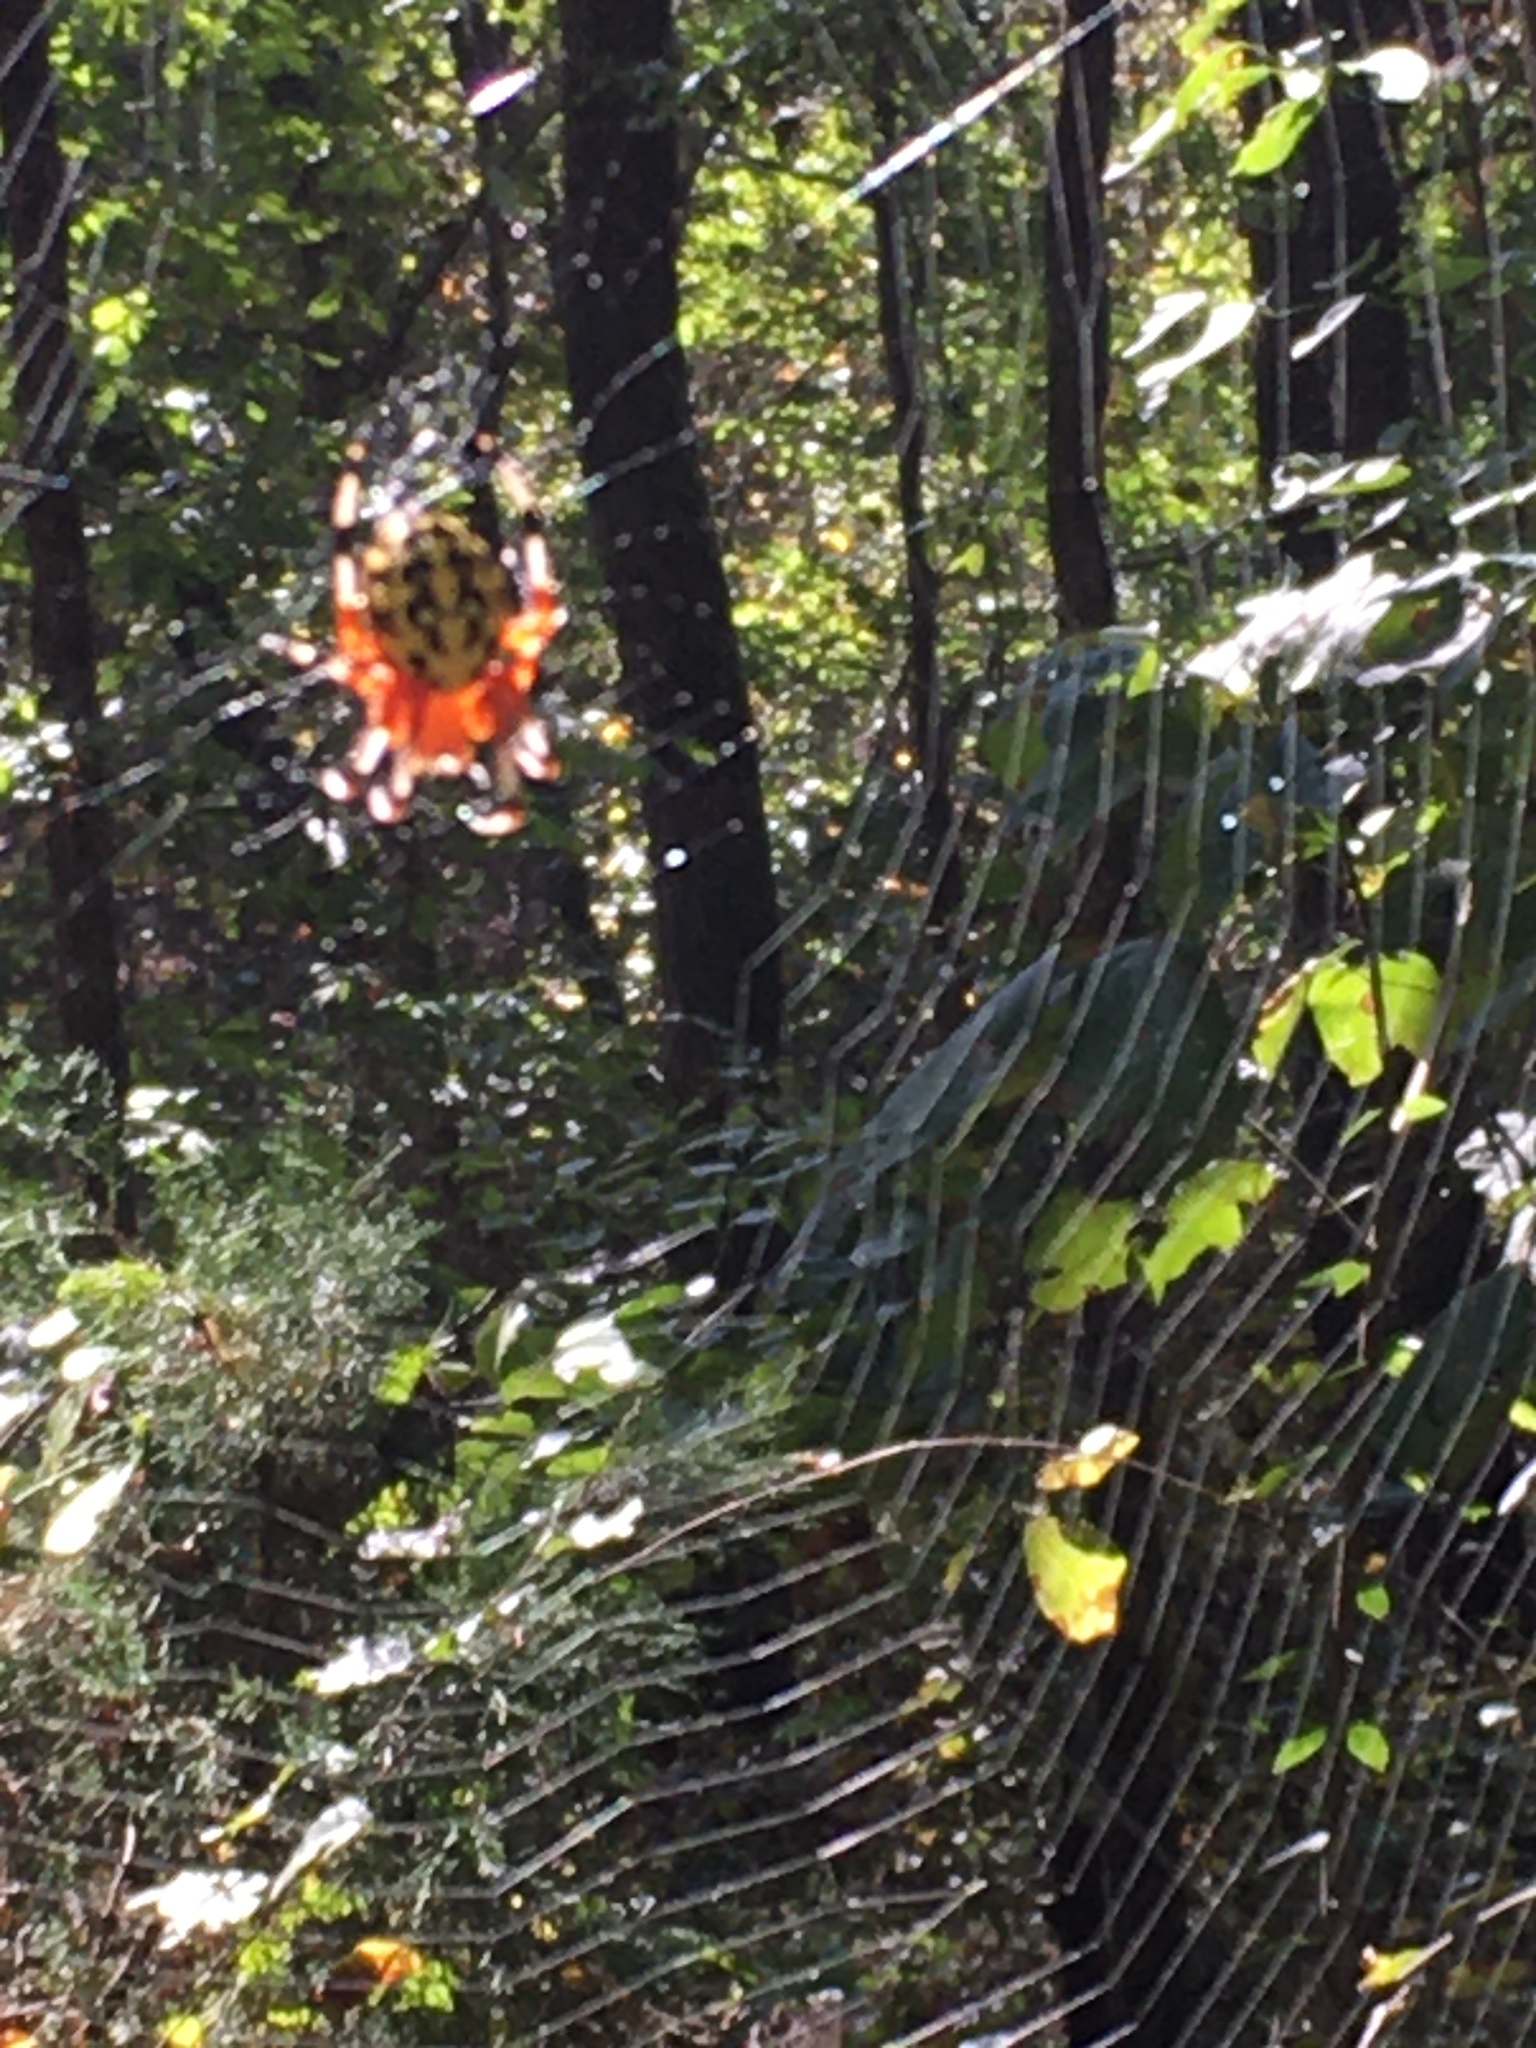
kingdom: Animalia
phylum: Arthropoda
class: Arachnida
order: Araneae
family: Araneidae
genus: Araneus
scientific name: Araneus marmoreus
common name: Marbled orbweaver
